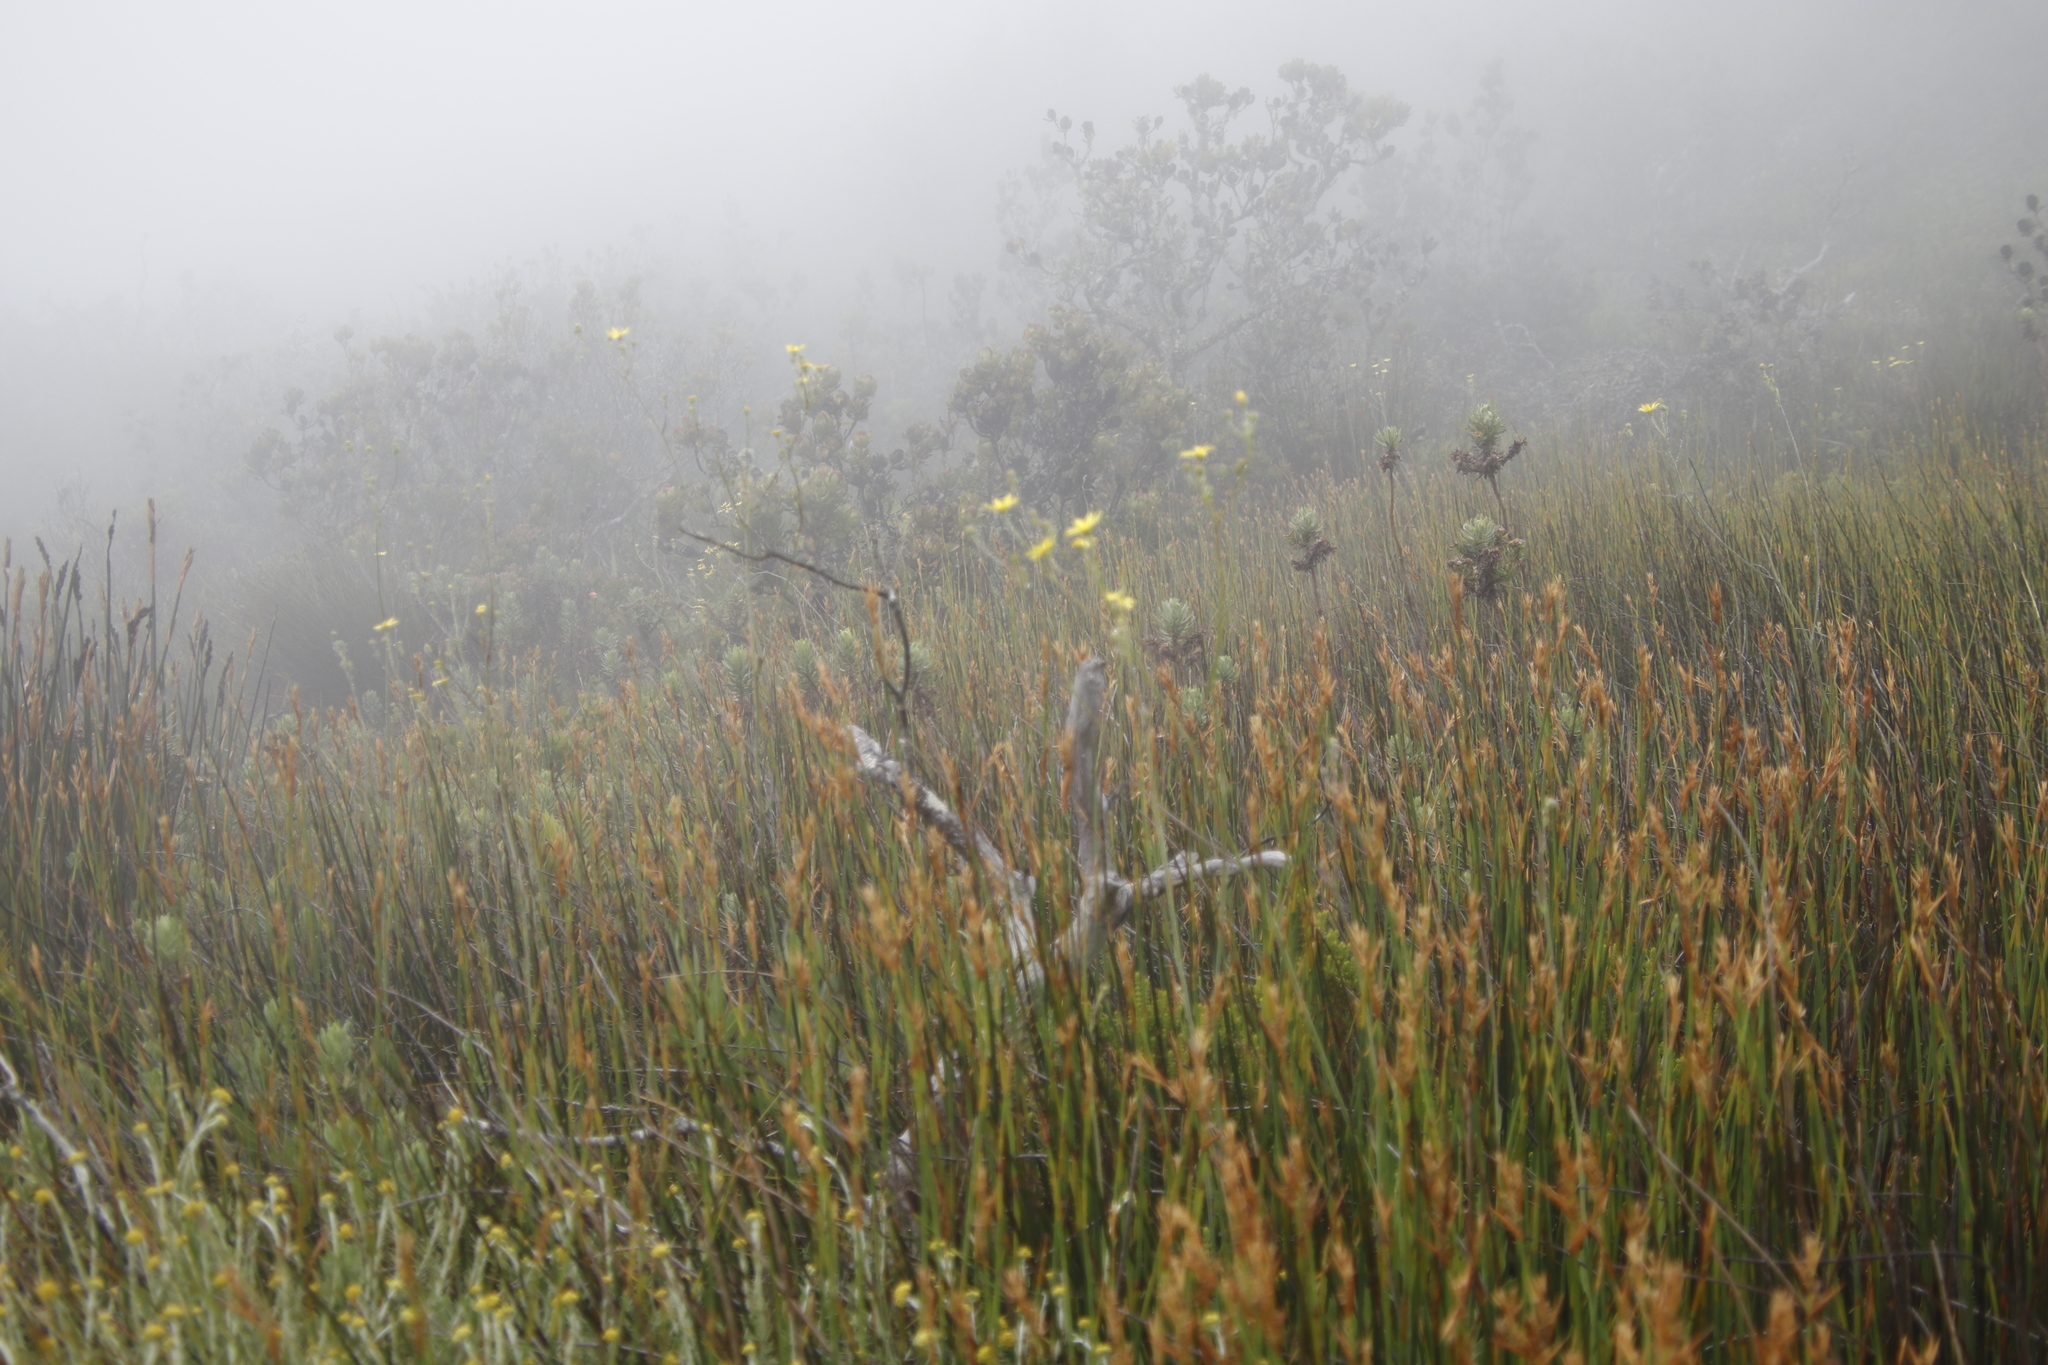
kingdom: Plantae
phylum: Tracheophyta
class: Magnoliopsida
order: Asterales
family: Asteraceae
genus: Othonna
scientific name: Othonna quinquedentata
